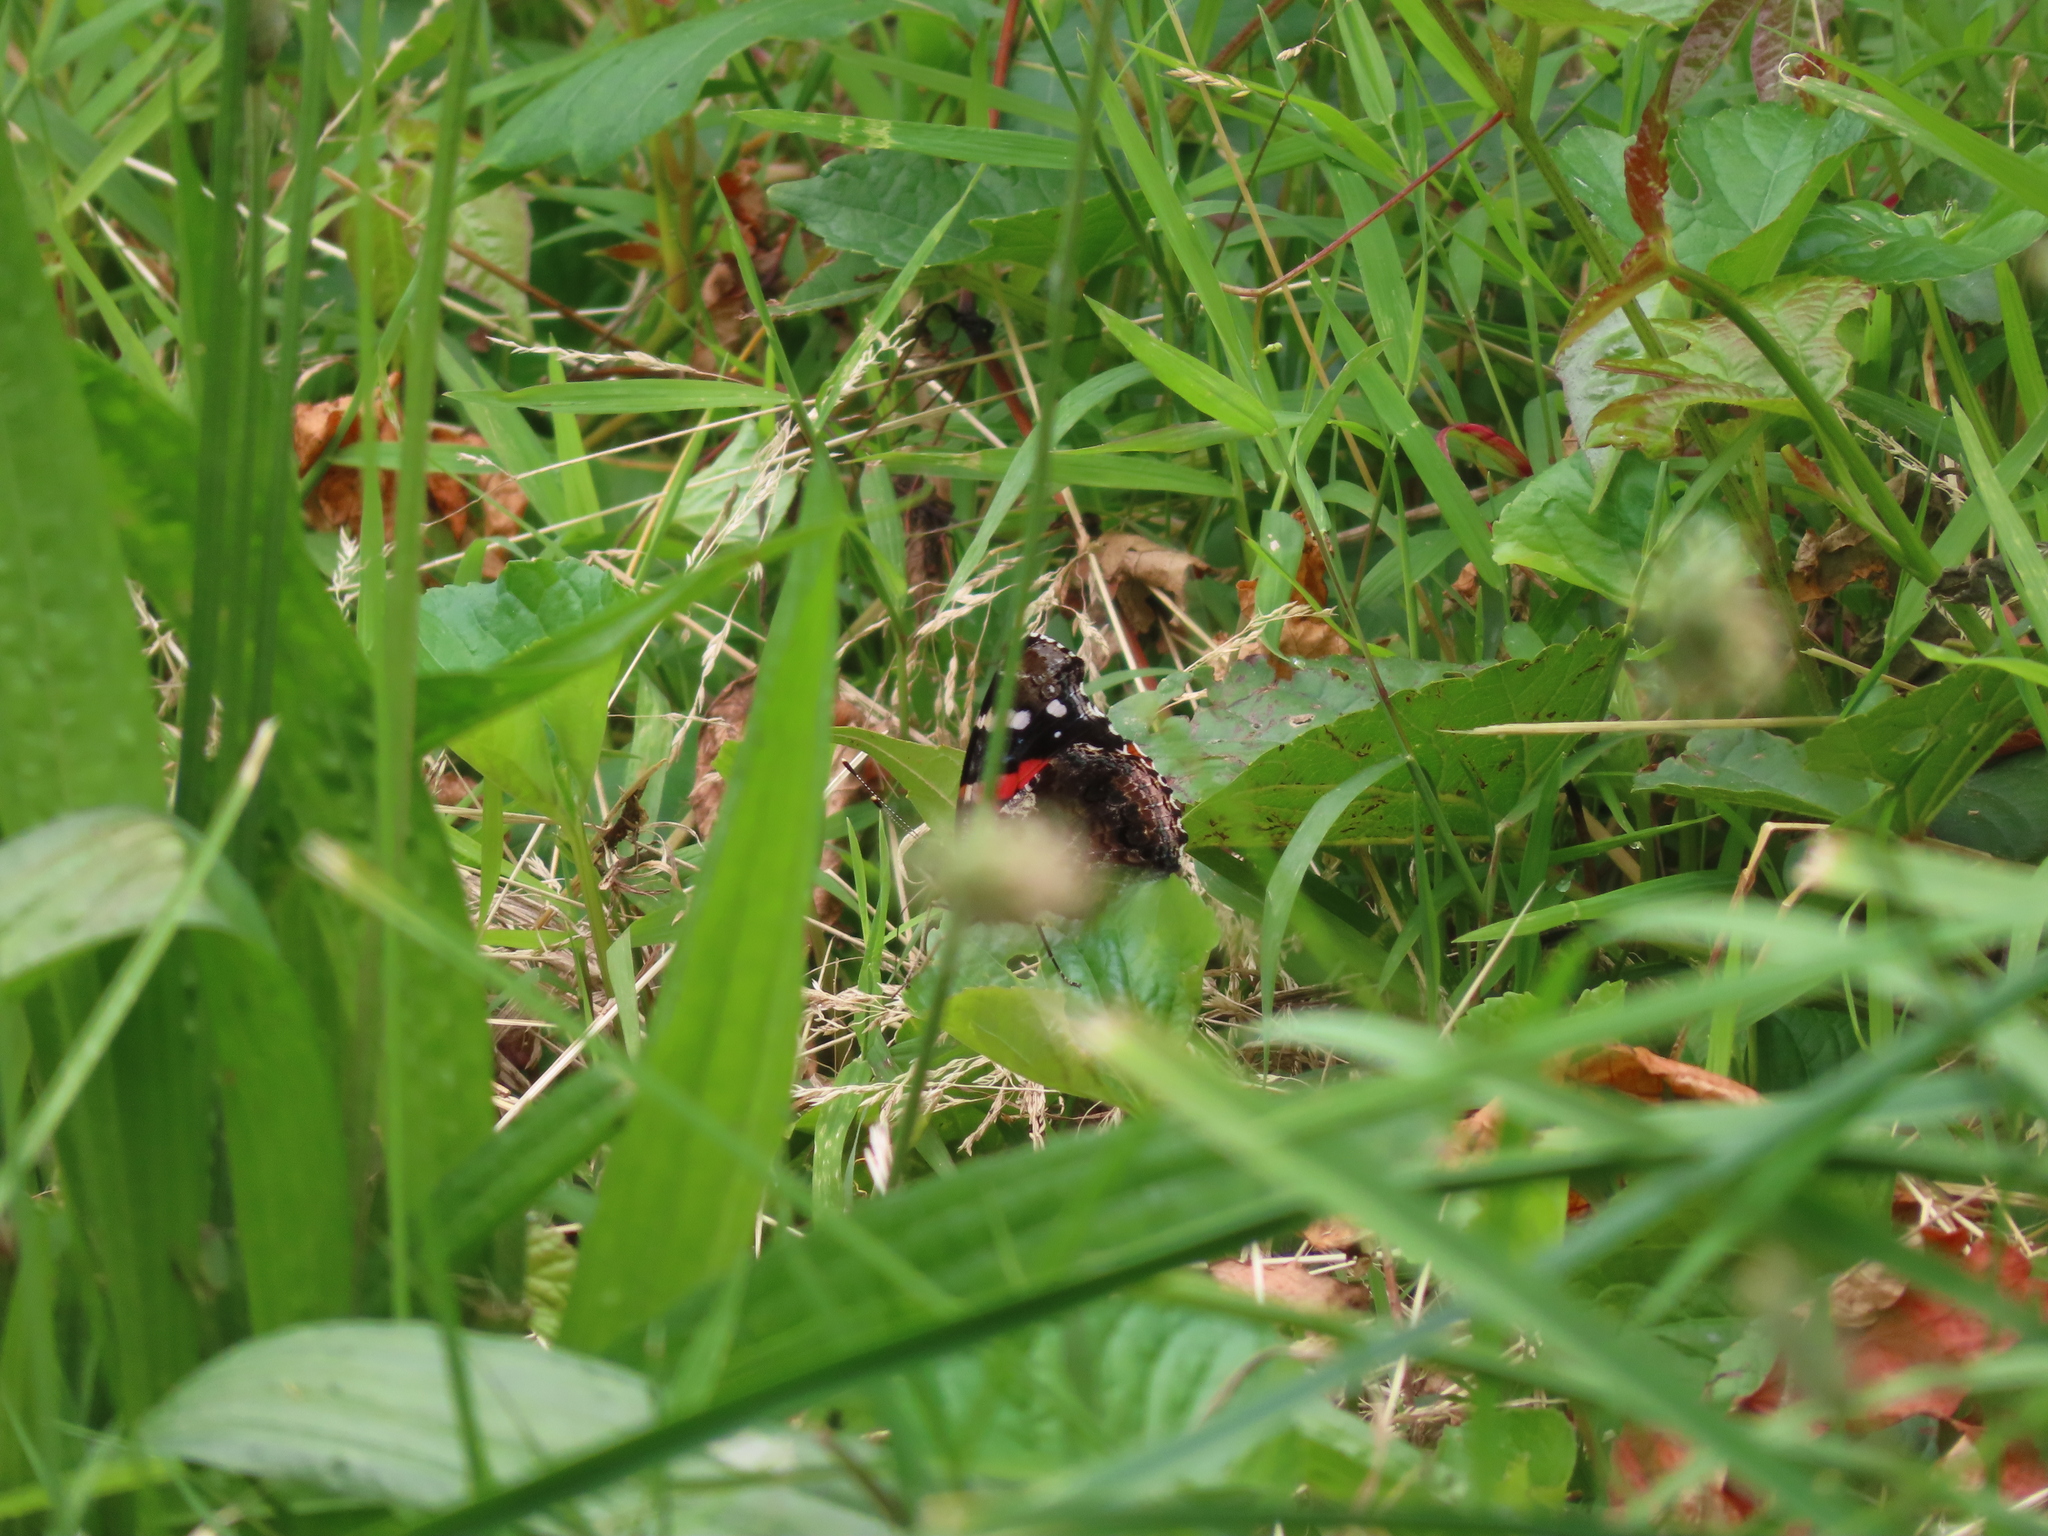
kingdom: Animalia
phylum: Arthropoda
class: Insecta
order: Lepidoptera
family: Nymphalidae
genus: Vanessa
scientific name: Vanessa atalanta
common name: Red admiral
